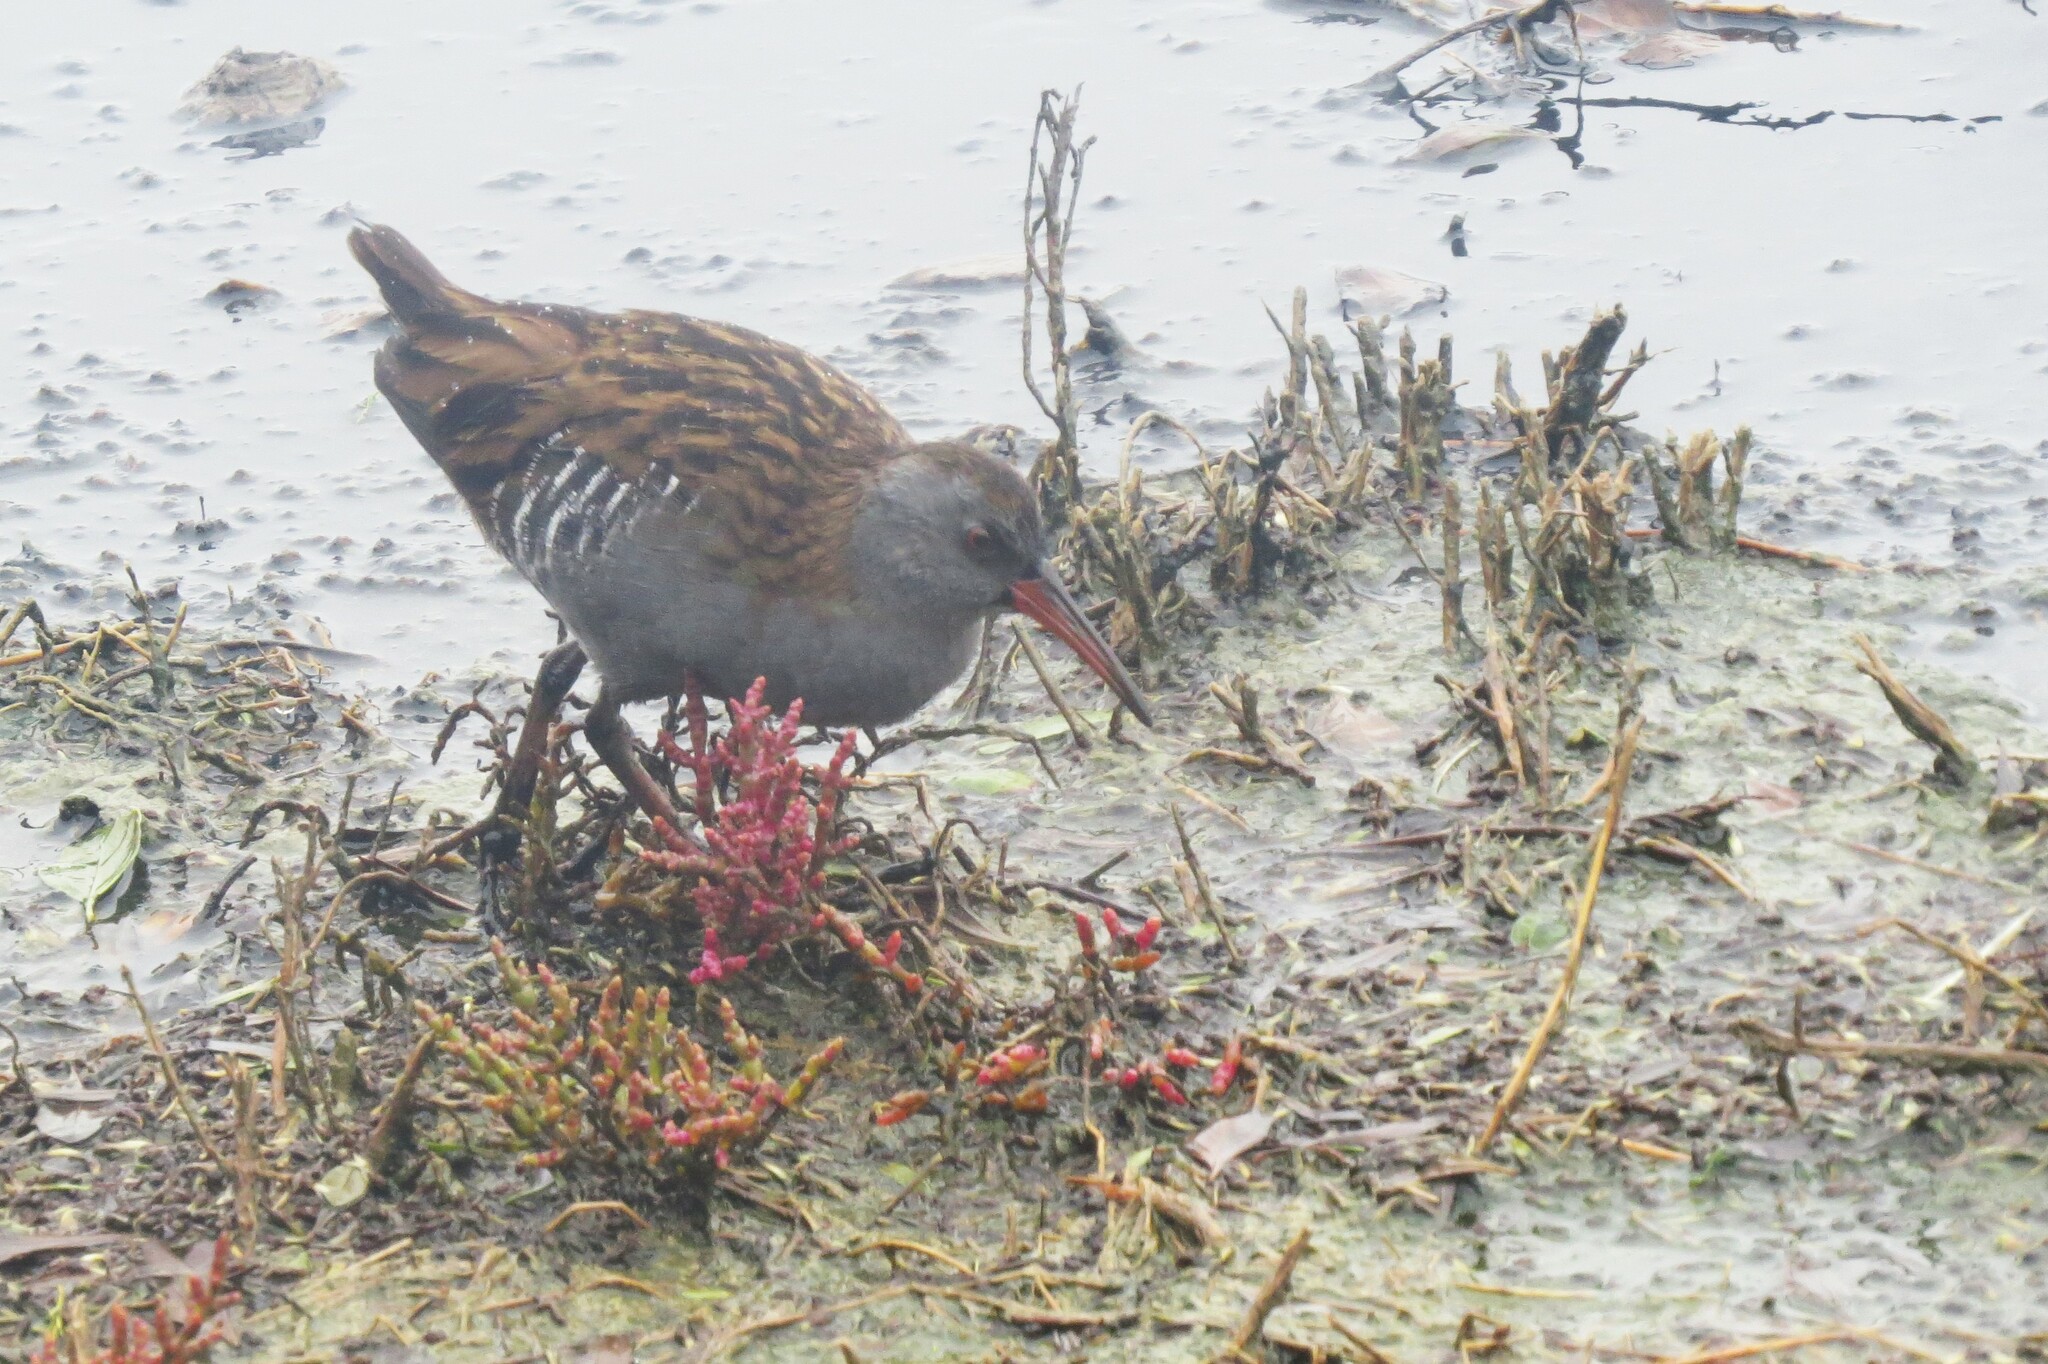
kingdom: Animalia
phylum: Chordata
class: Aves
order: Gruiformes
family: Rallidae
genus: Rallus
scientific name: Rallus aquaticus
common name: Water rail
